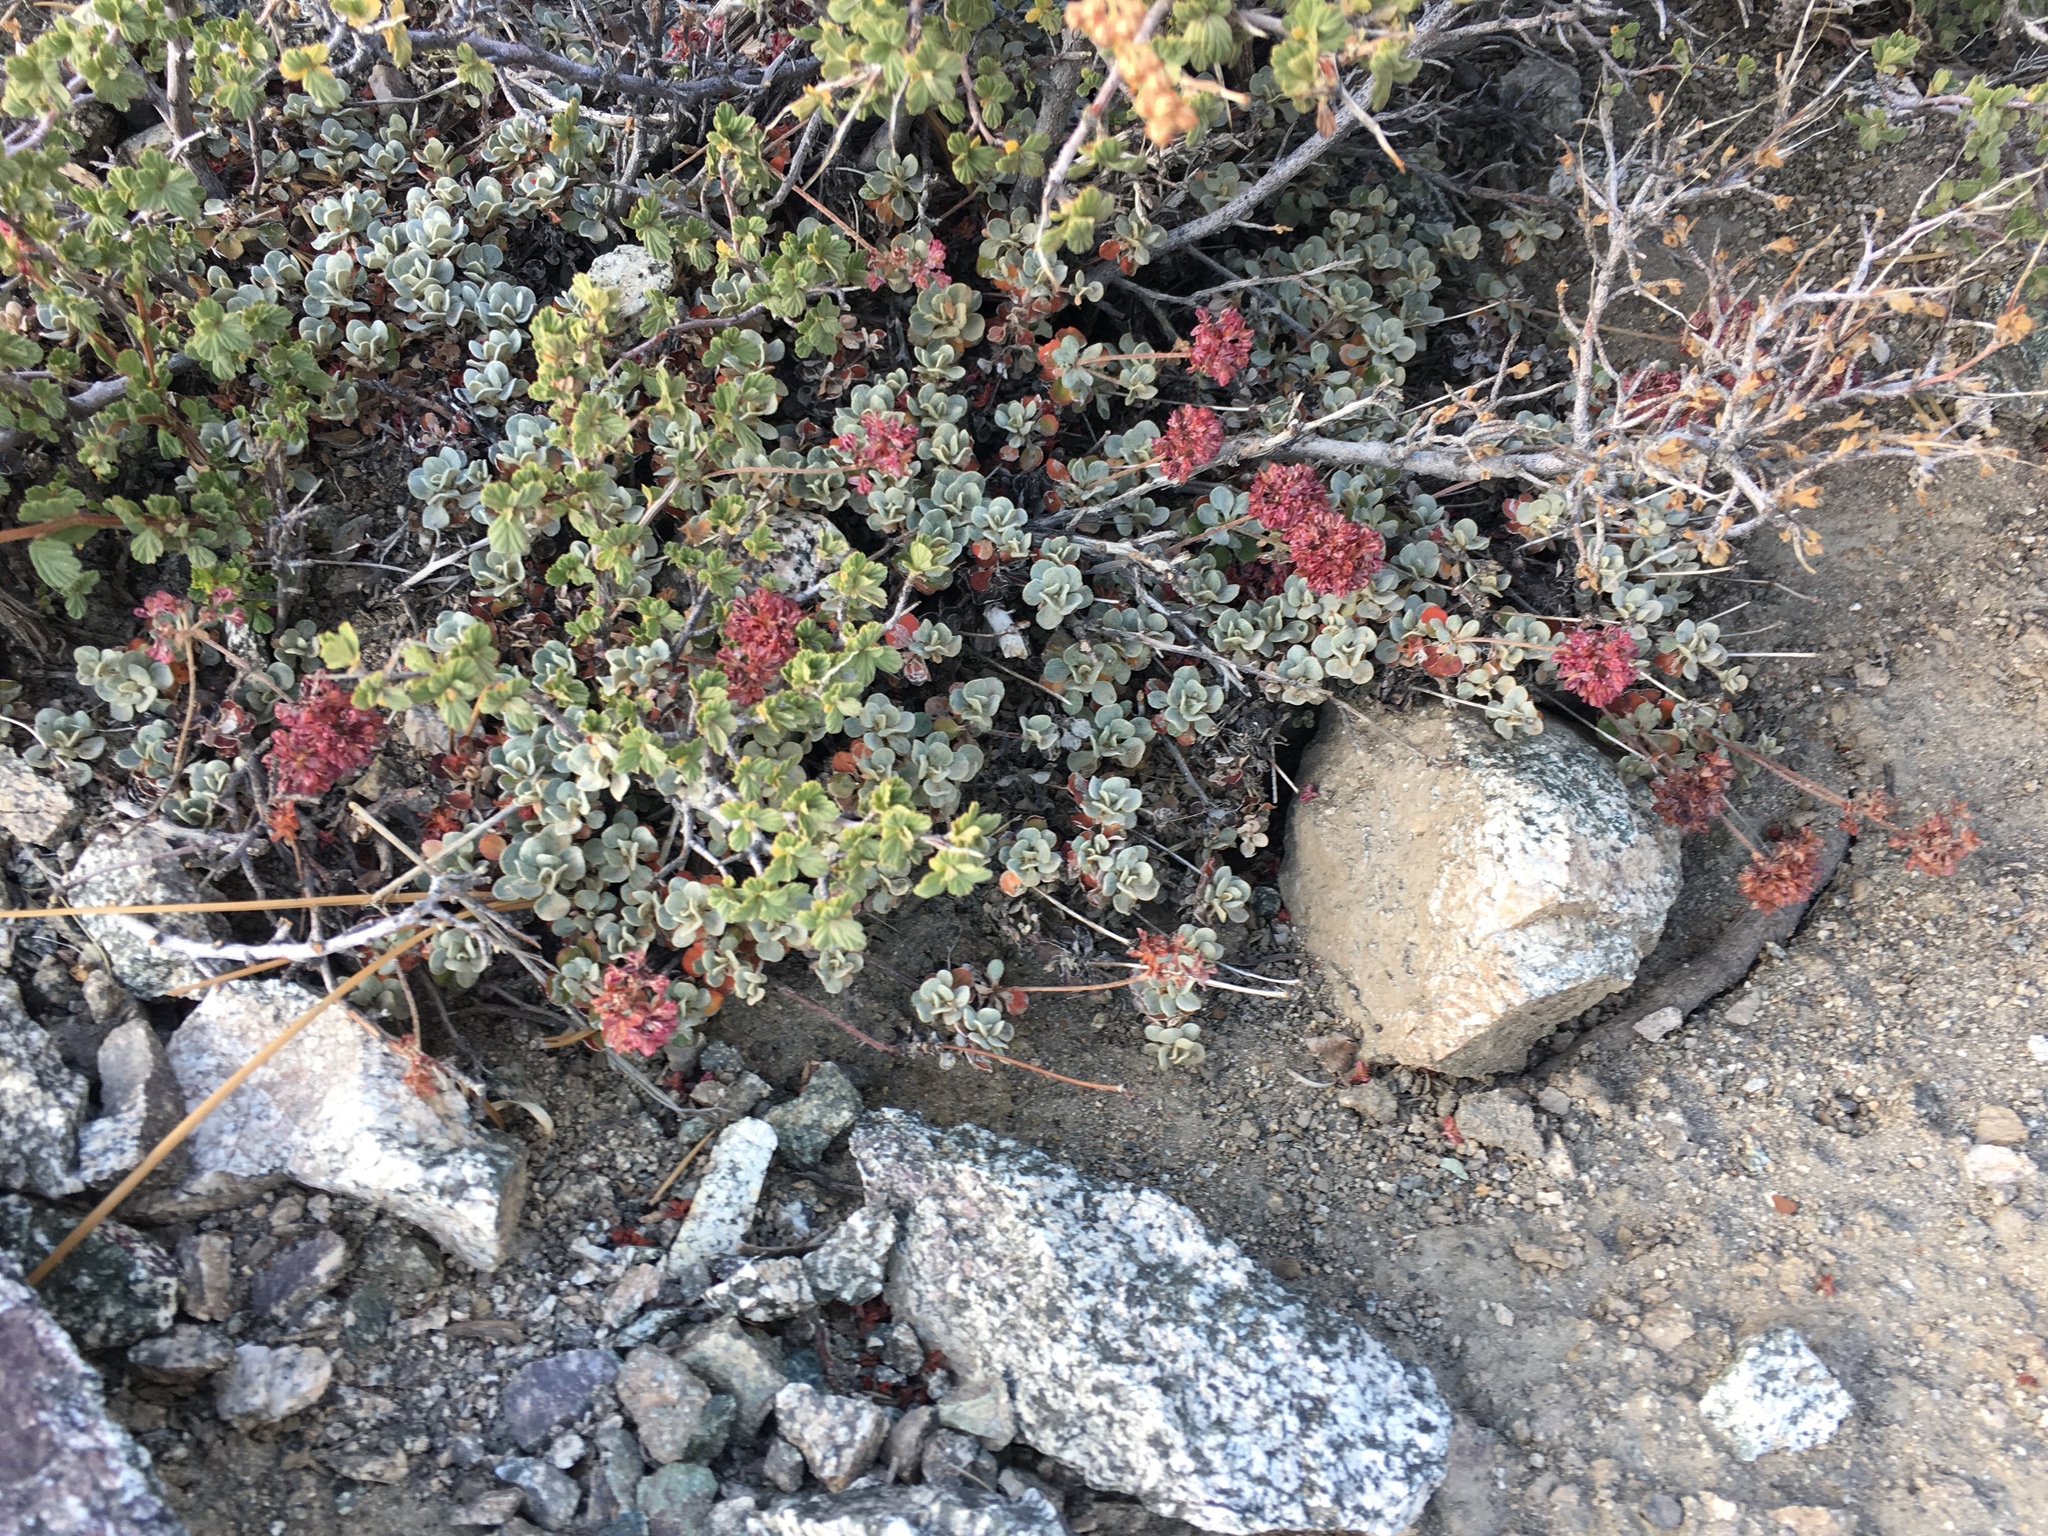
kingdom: Plantae
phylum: Tracheophyta
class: Magnoliopsida
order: Caryophyllales
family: Polygonaceae
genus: Eriogonum
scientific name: Eriogonum umbellatum
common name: Sulfur-buckwheat
